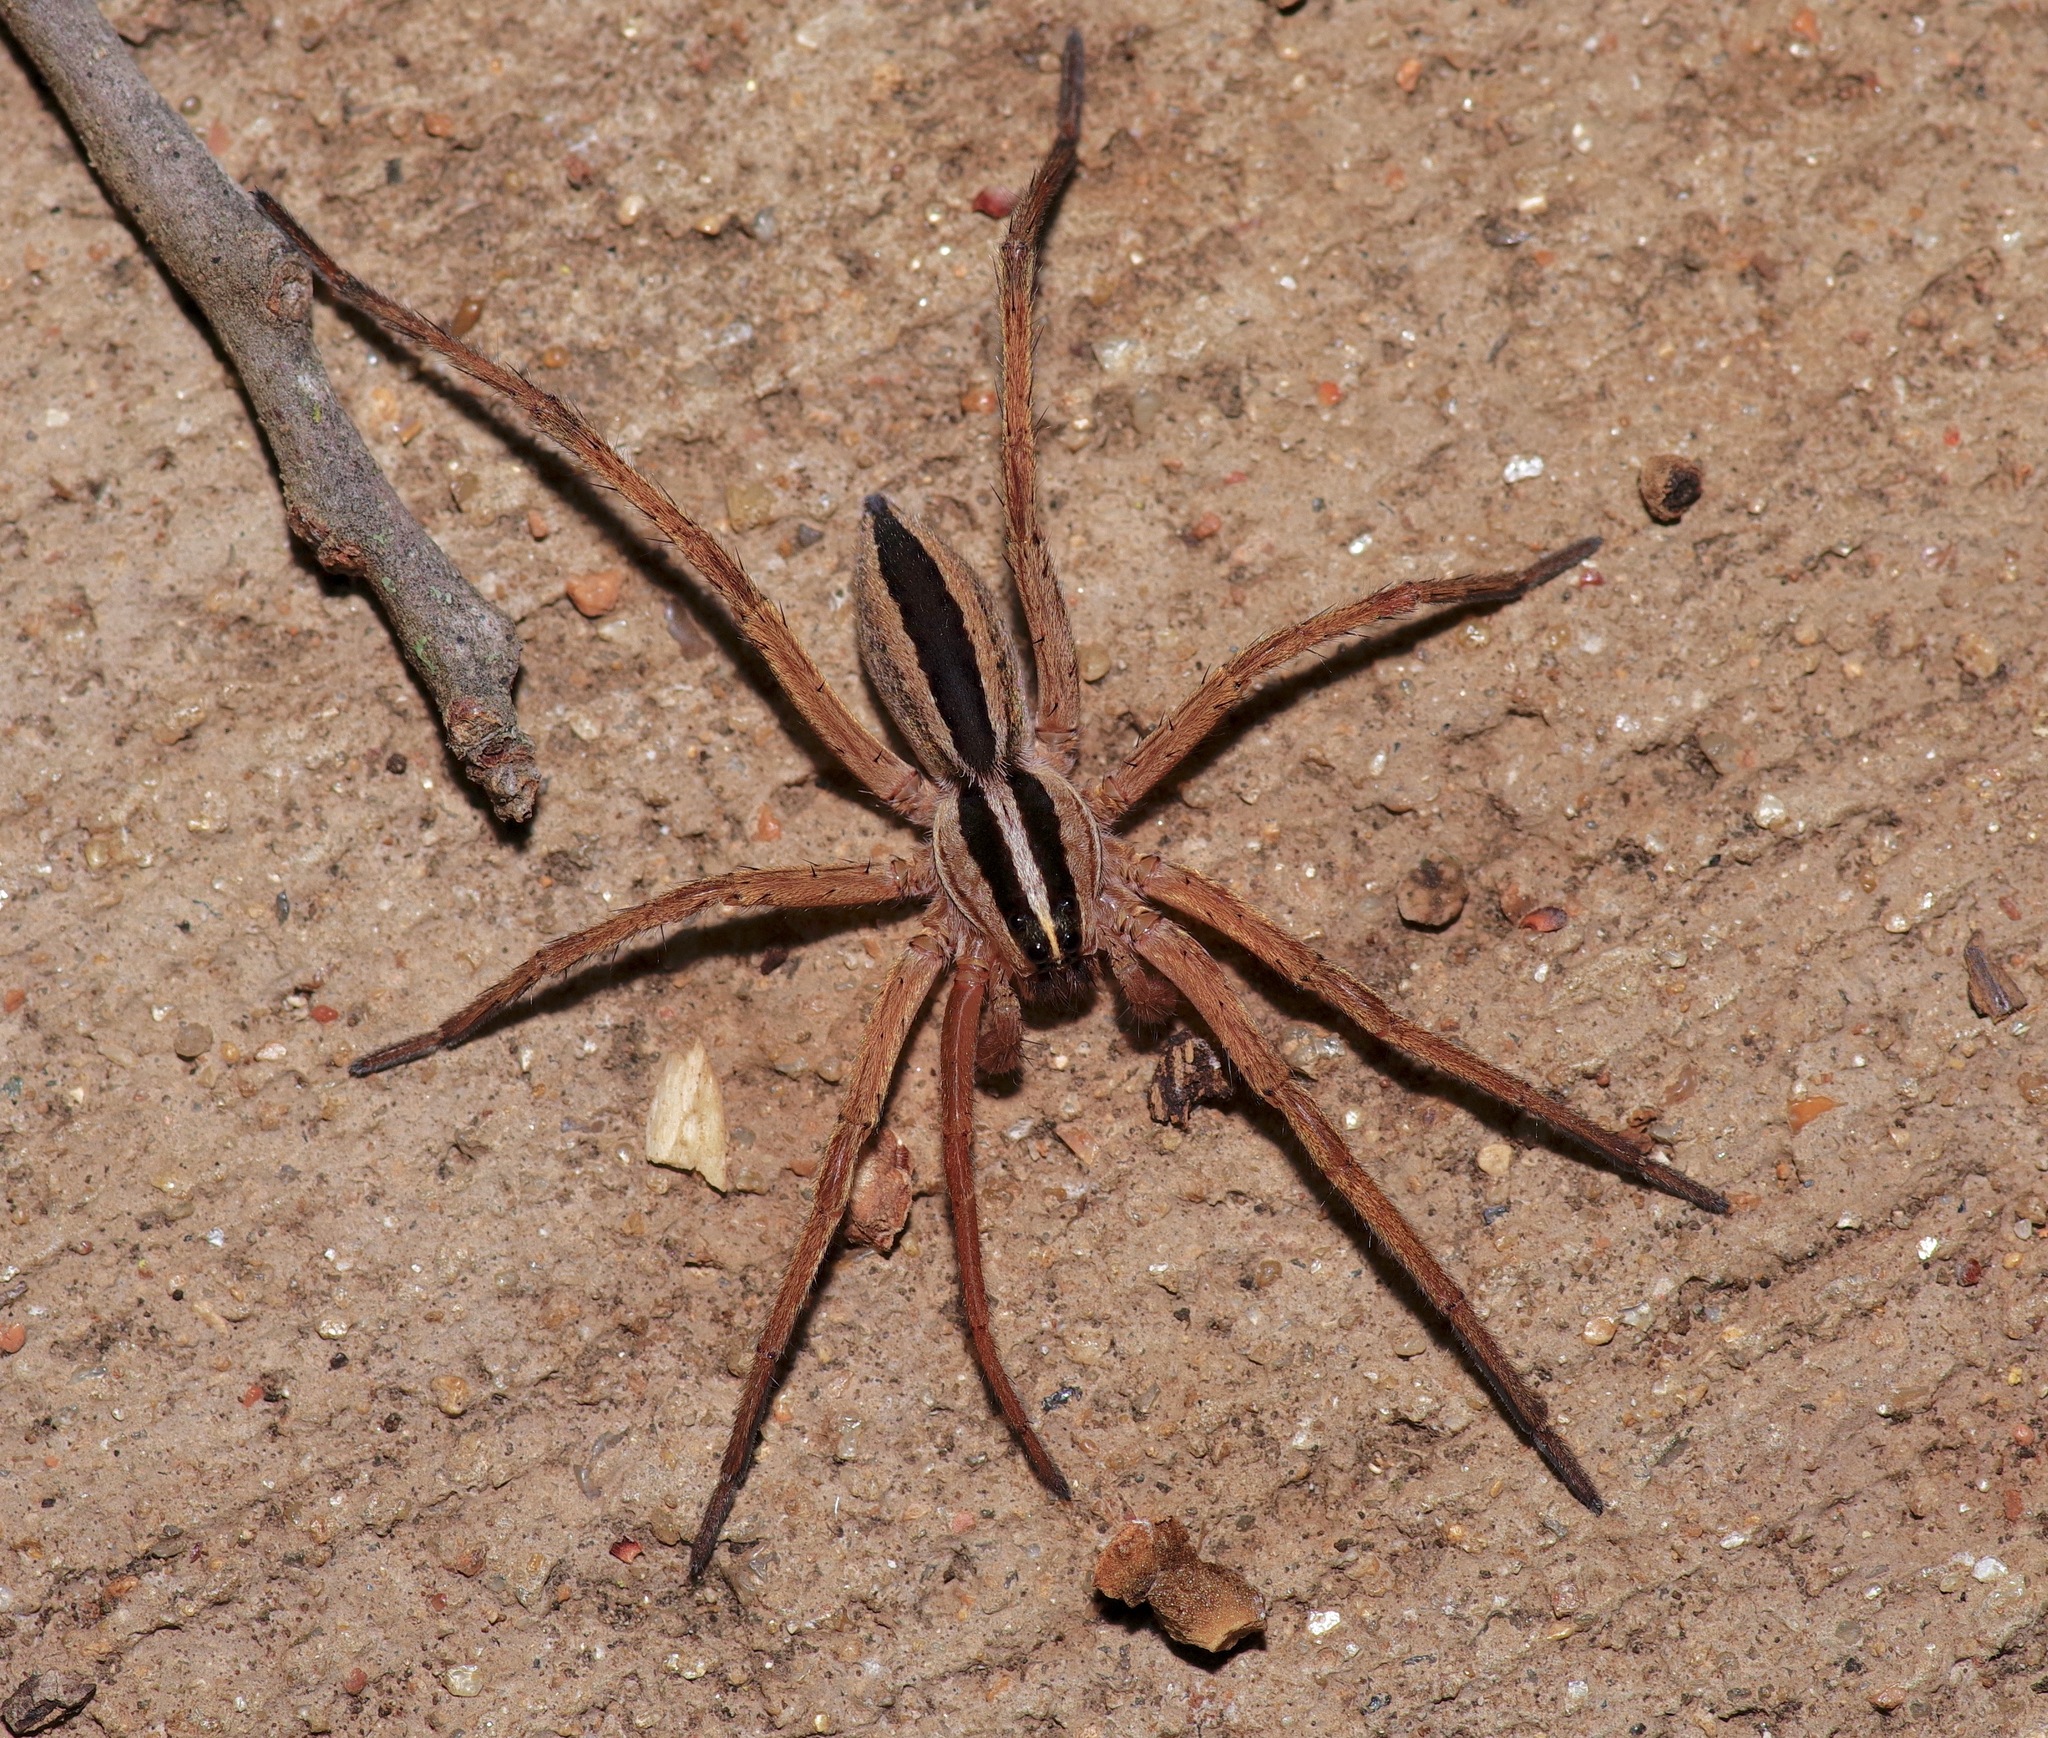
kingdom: Animalia
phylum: Arthropoda
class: Arachnida
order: Araneae
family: Lycosidae
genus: Rabidosa
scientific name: Rabidosa punctulata
